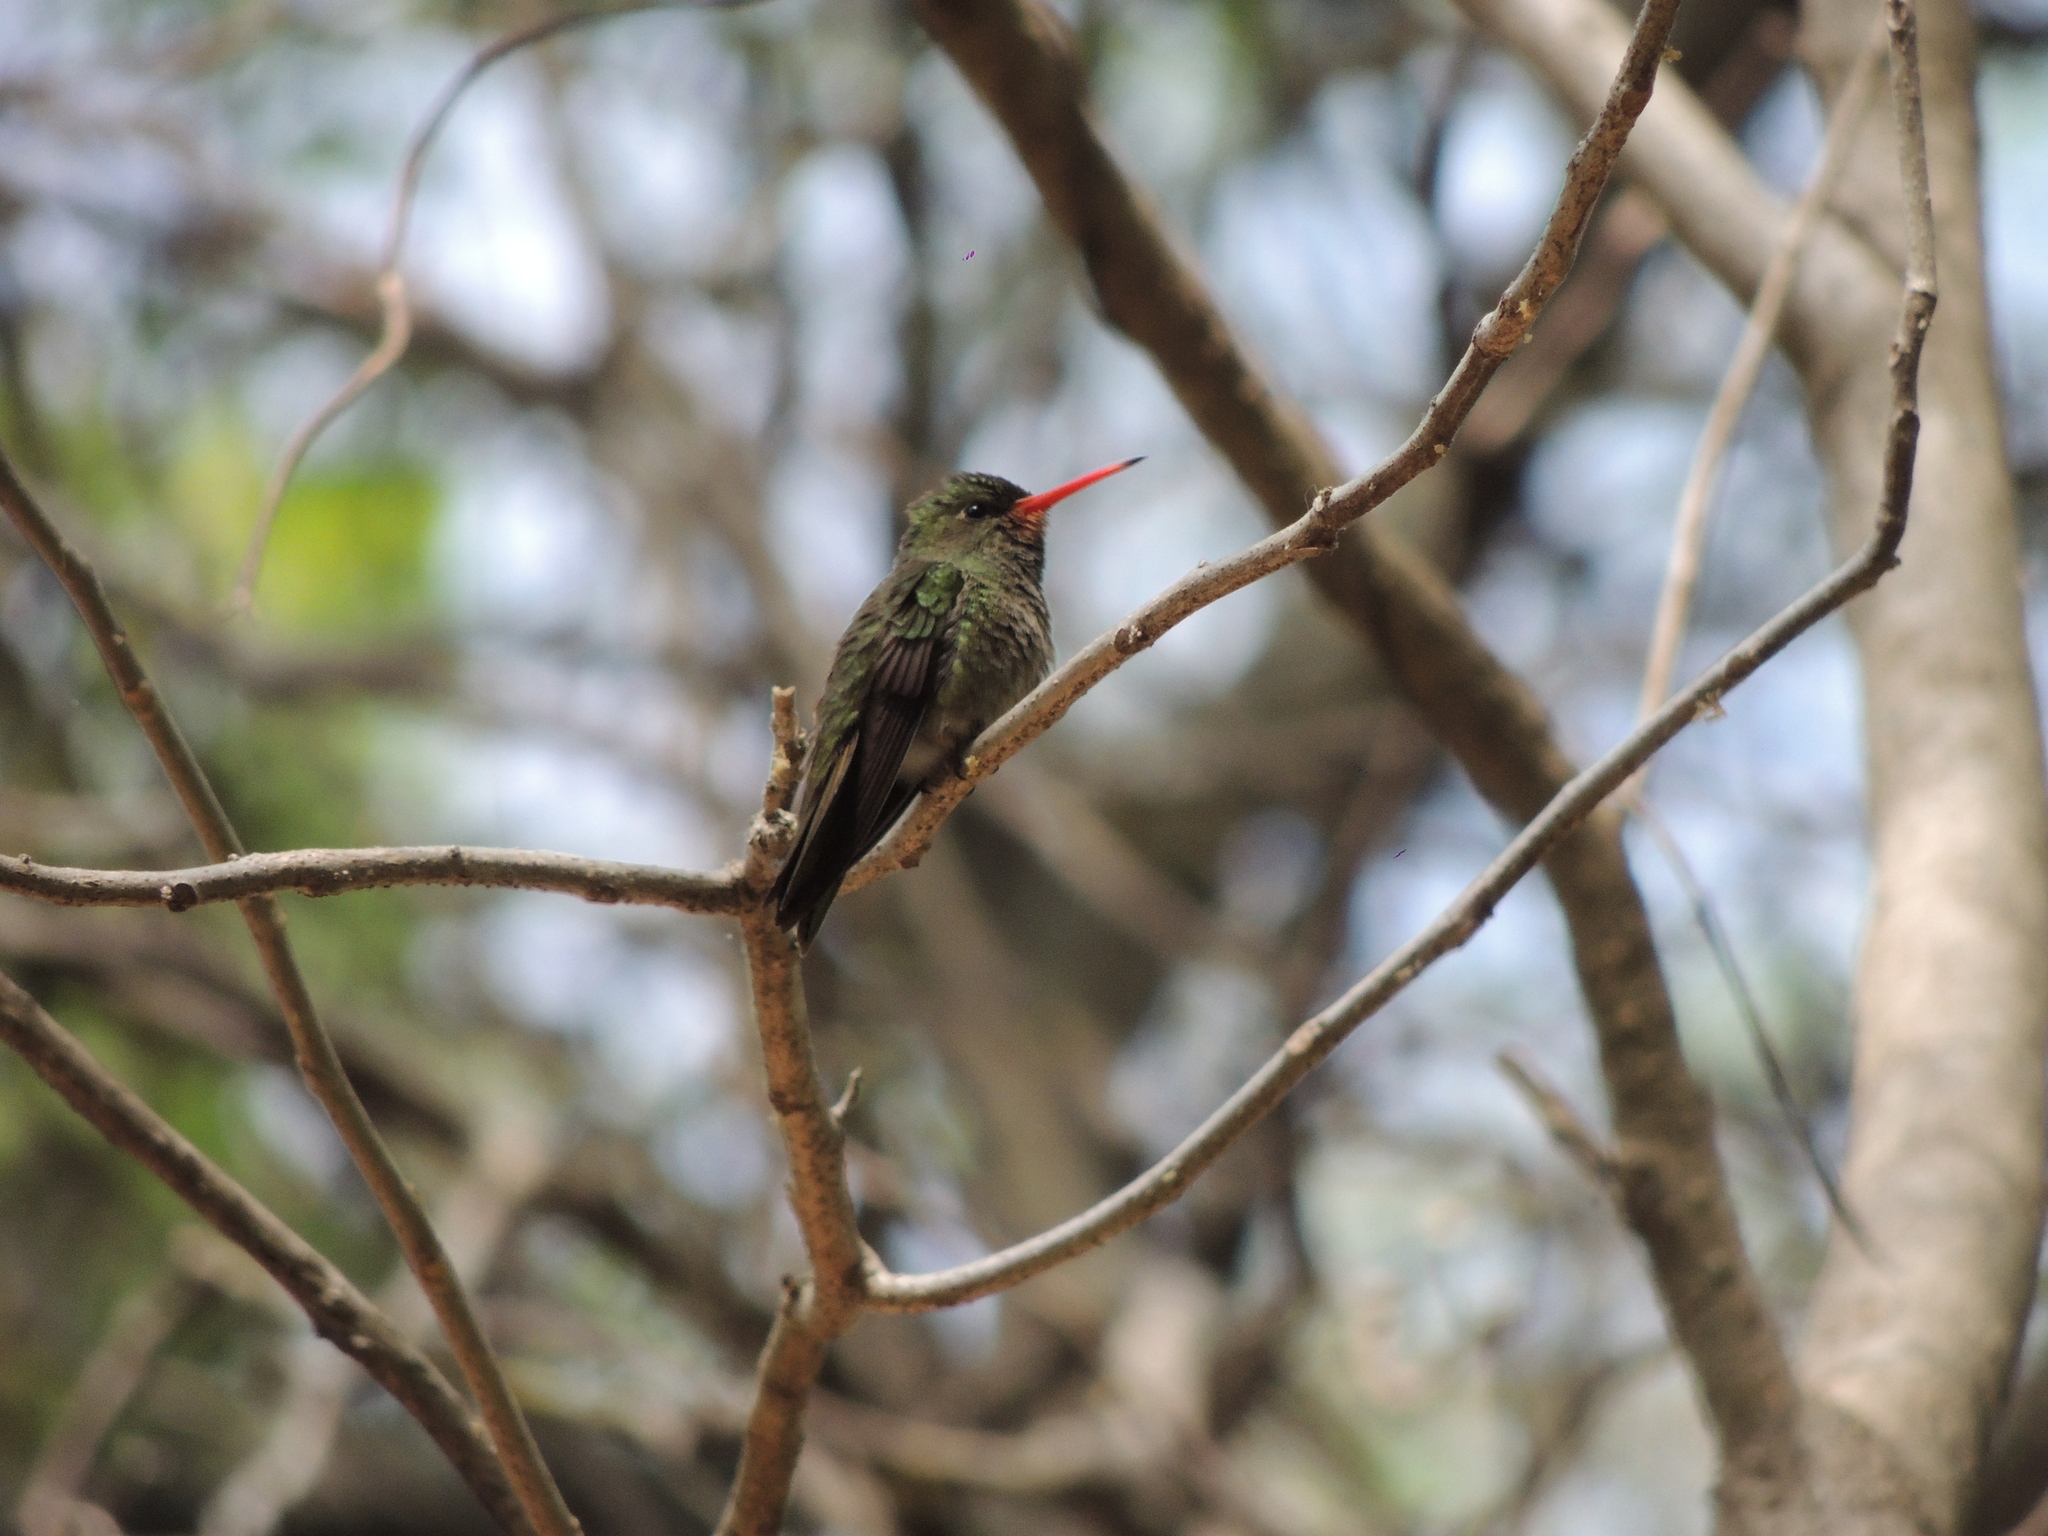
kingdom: Animalia
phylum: Chordata
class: Aves
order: Apodiformes
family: Trochilidae
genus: Hylocharis
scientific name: Hylocharis chrysura
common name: Gilded sapphire
